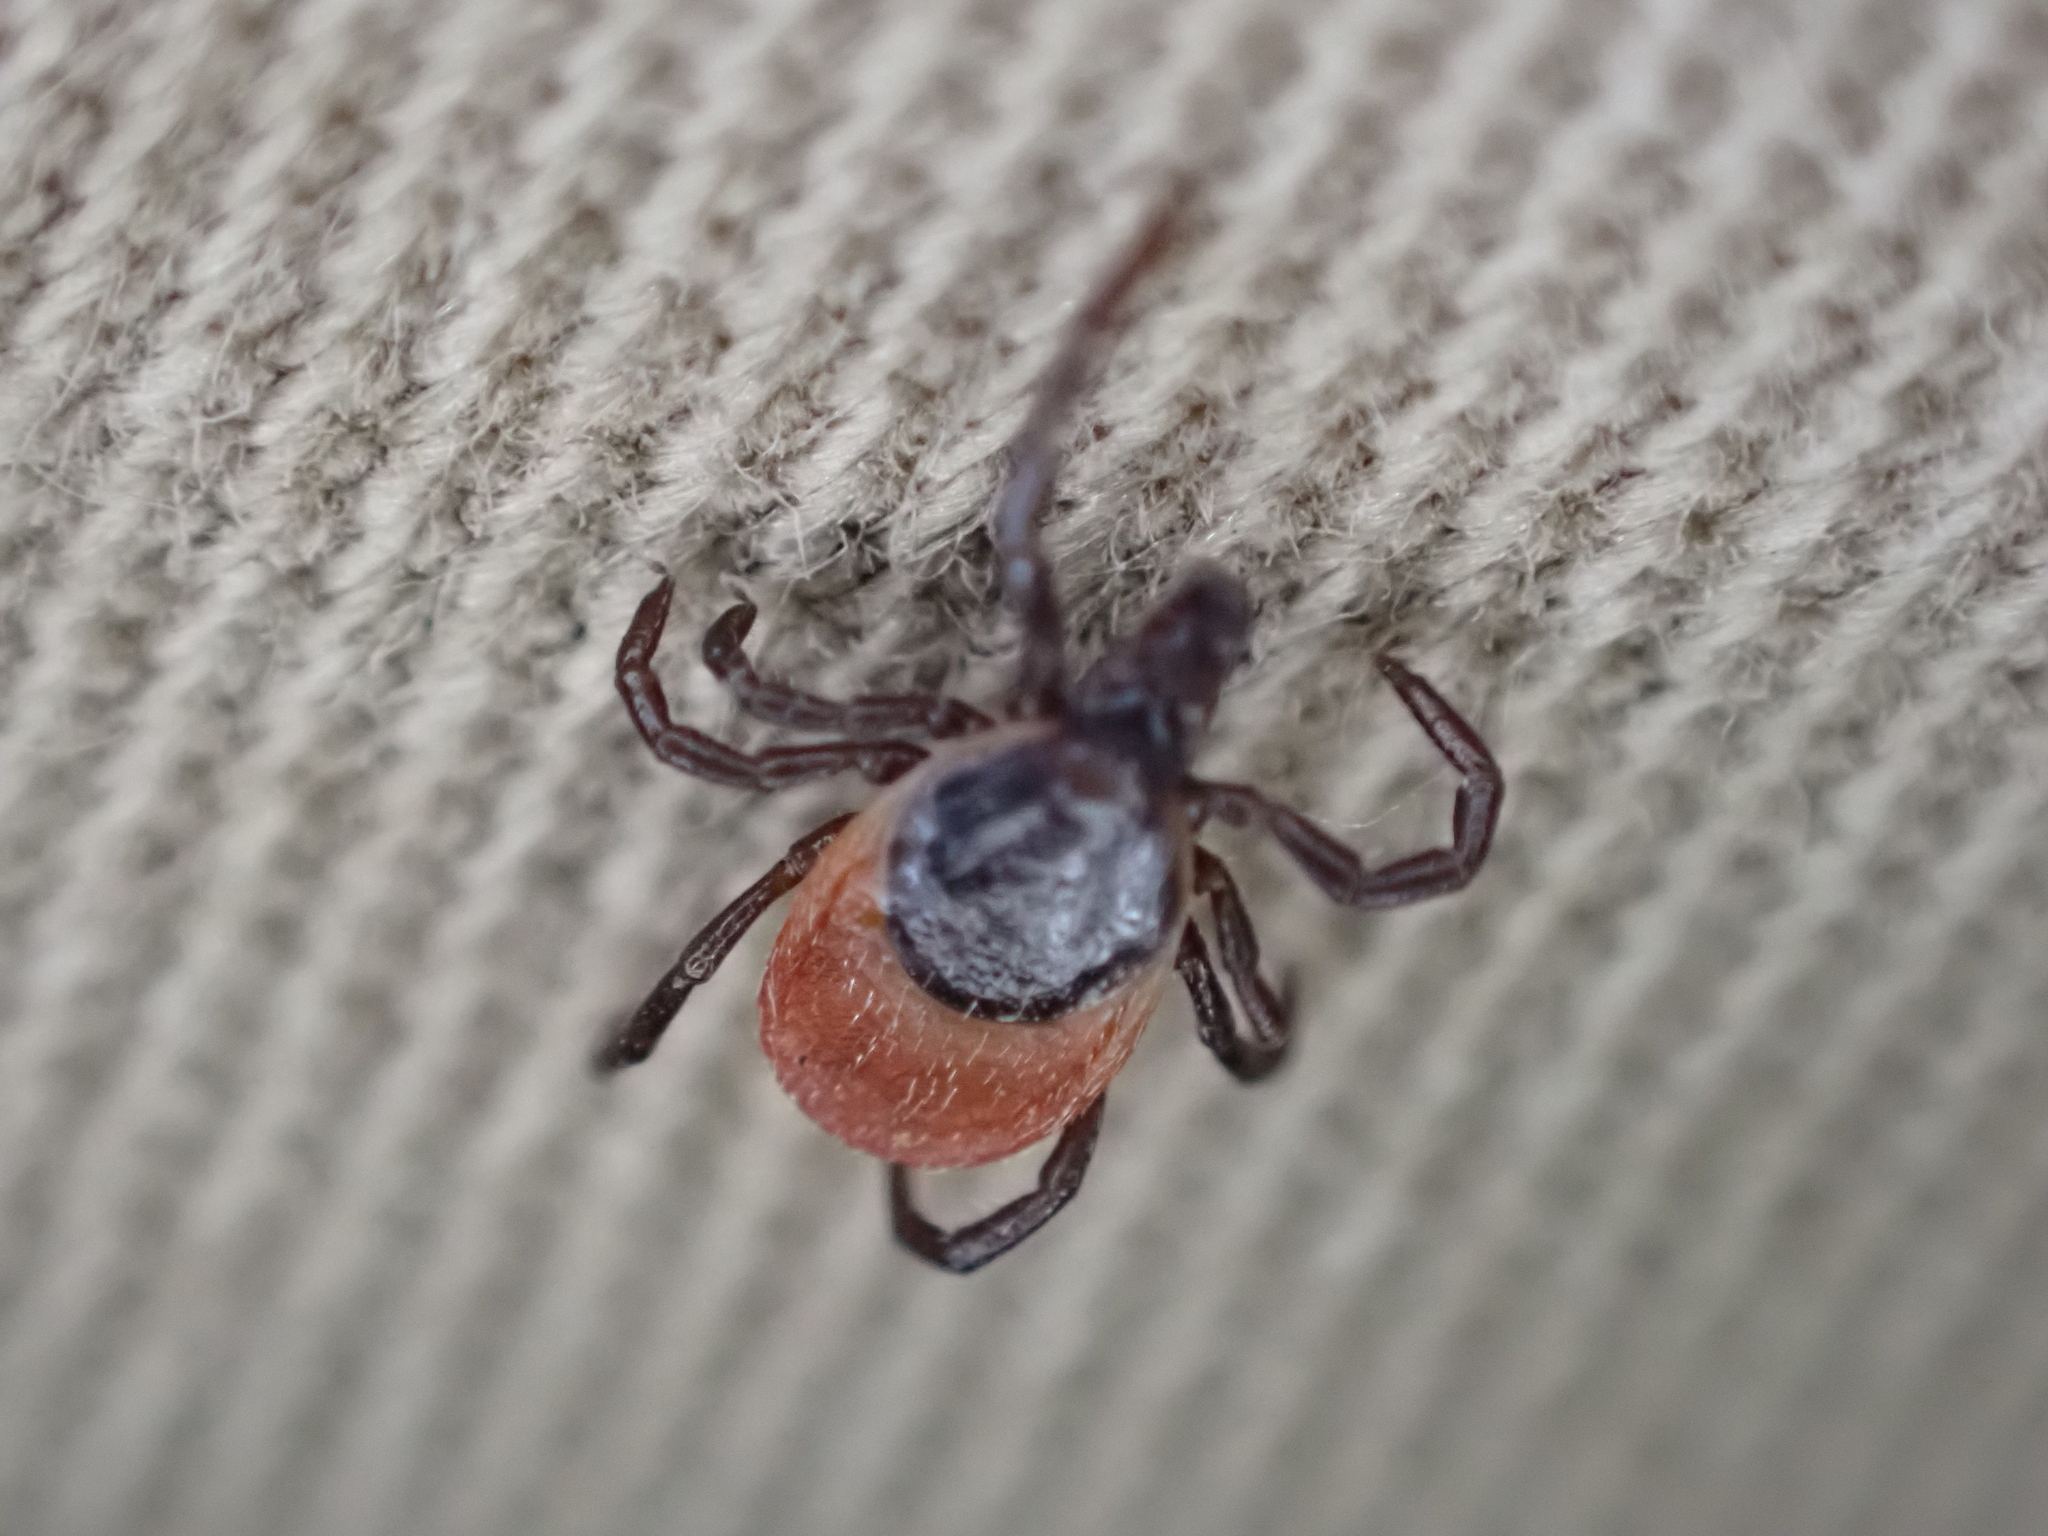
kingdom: Animalia
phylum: Arthropoda
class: Arachnida
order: Ixodida
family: Ixodidae
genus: Ixodes
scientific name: Ixodes ricinus
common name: Castor bean tick
